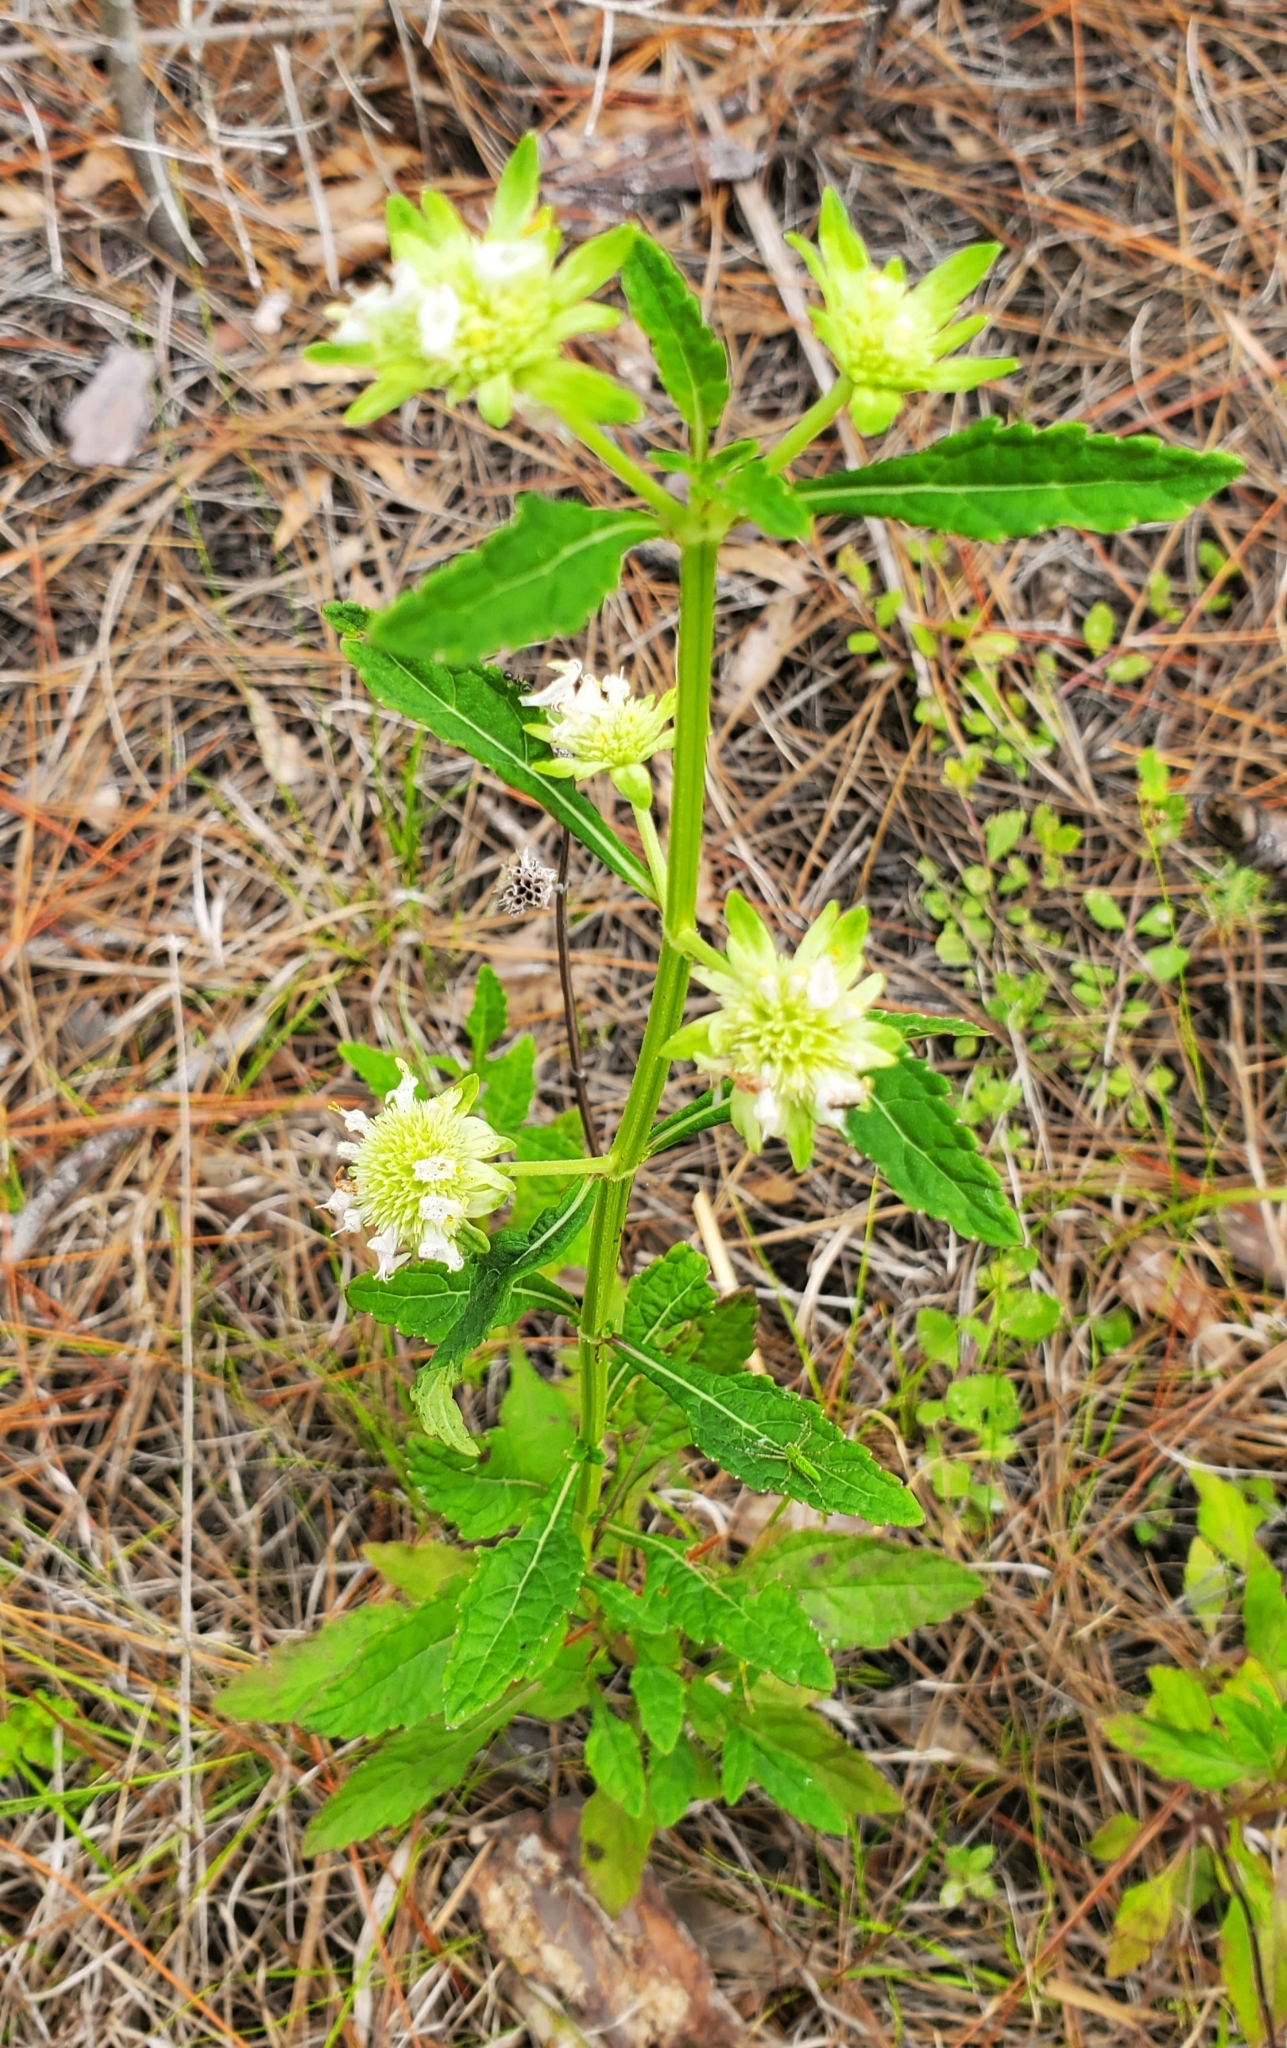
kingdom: Plantae
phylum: Tracheophyta
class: Magnoliopsida
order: Lamiales
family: Lamiaceae
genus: Hyptis
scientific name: Hyptis alata
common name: Cluster bush-mint
